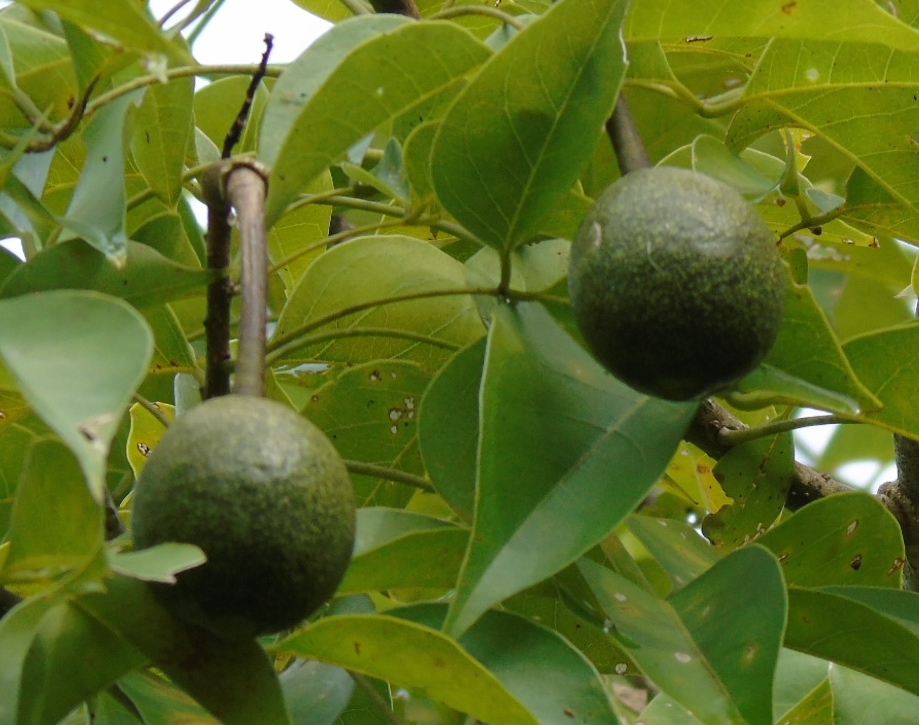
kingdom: Plantae
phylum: Tracheophyta
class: Magnoliopsida
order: Brassicales
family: Capparaceae
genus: Crateva
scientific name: Crateva tapia
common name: Garlic-pear
